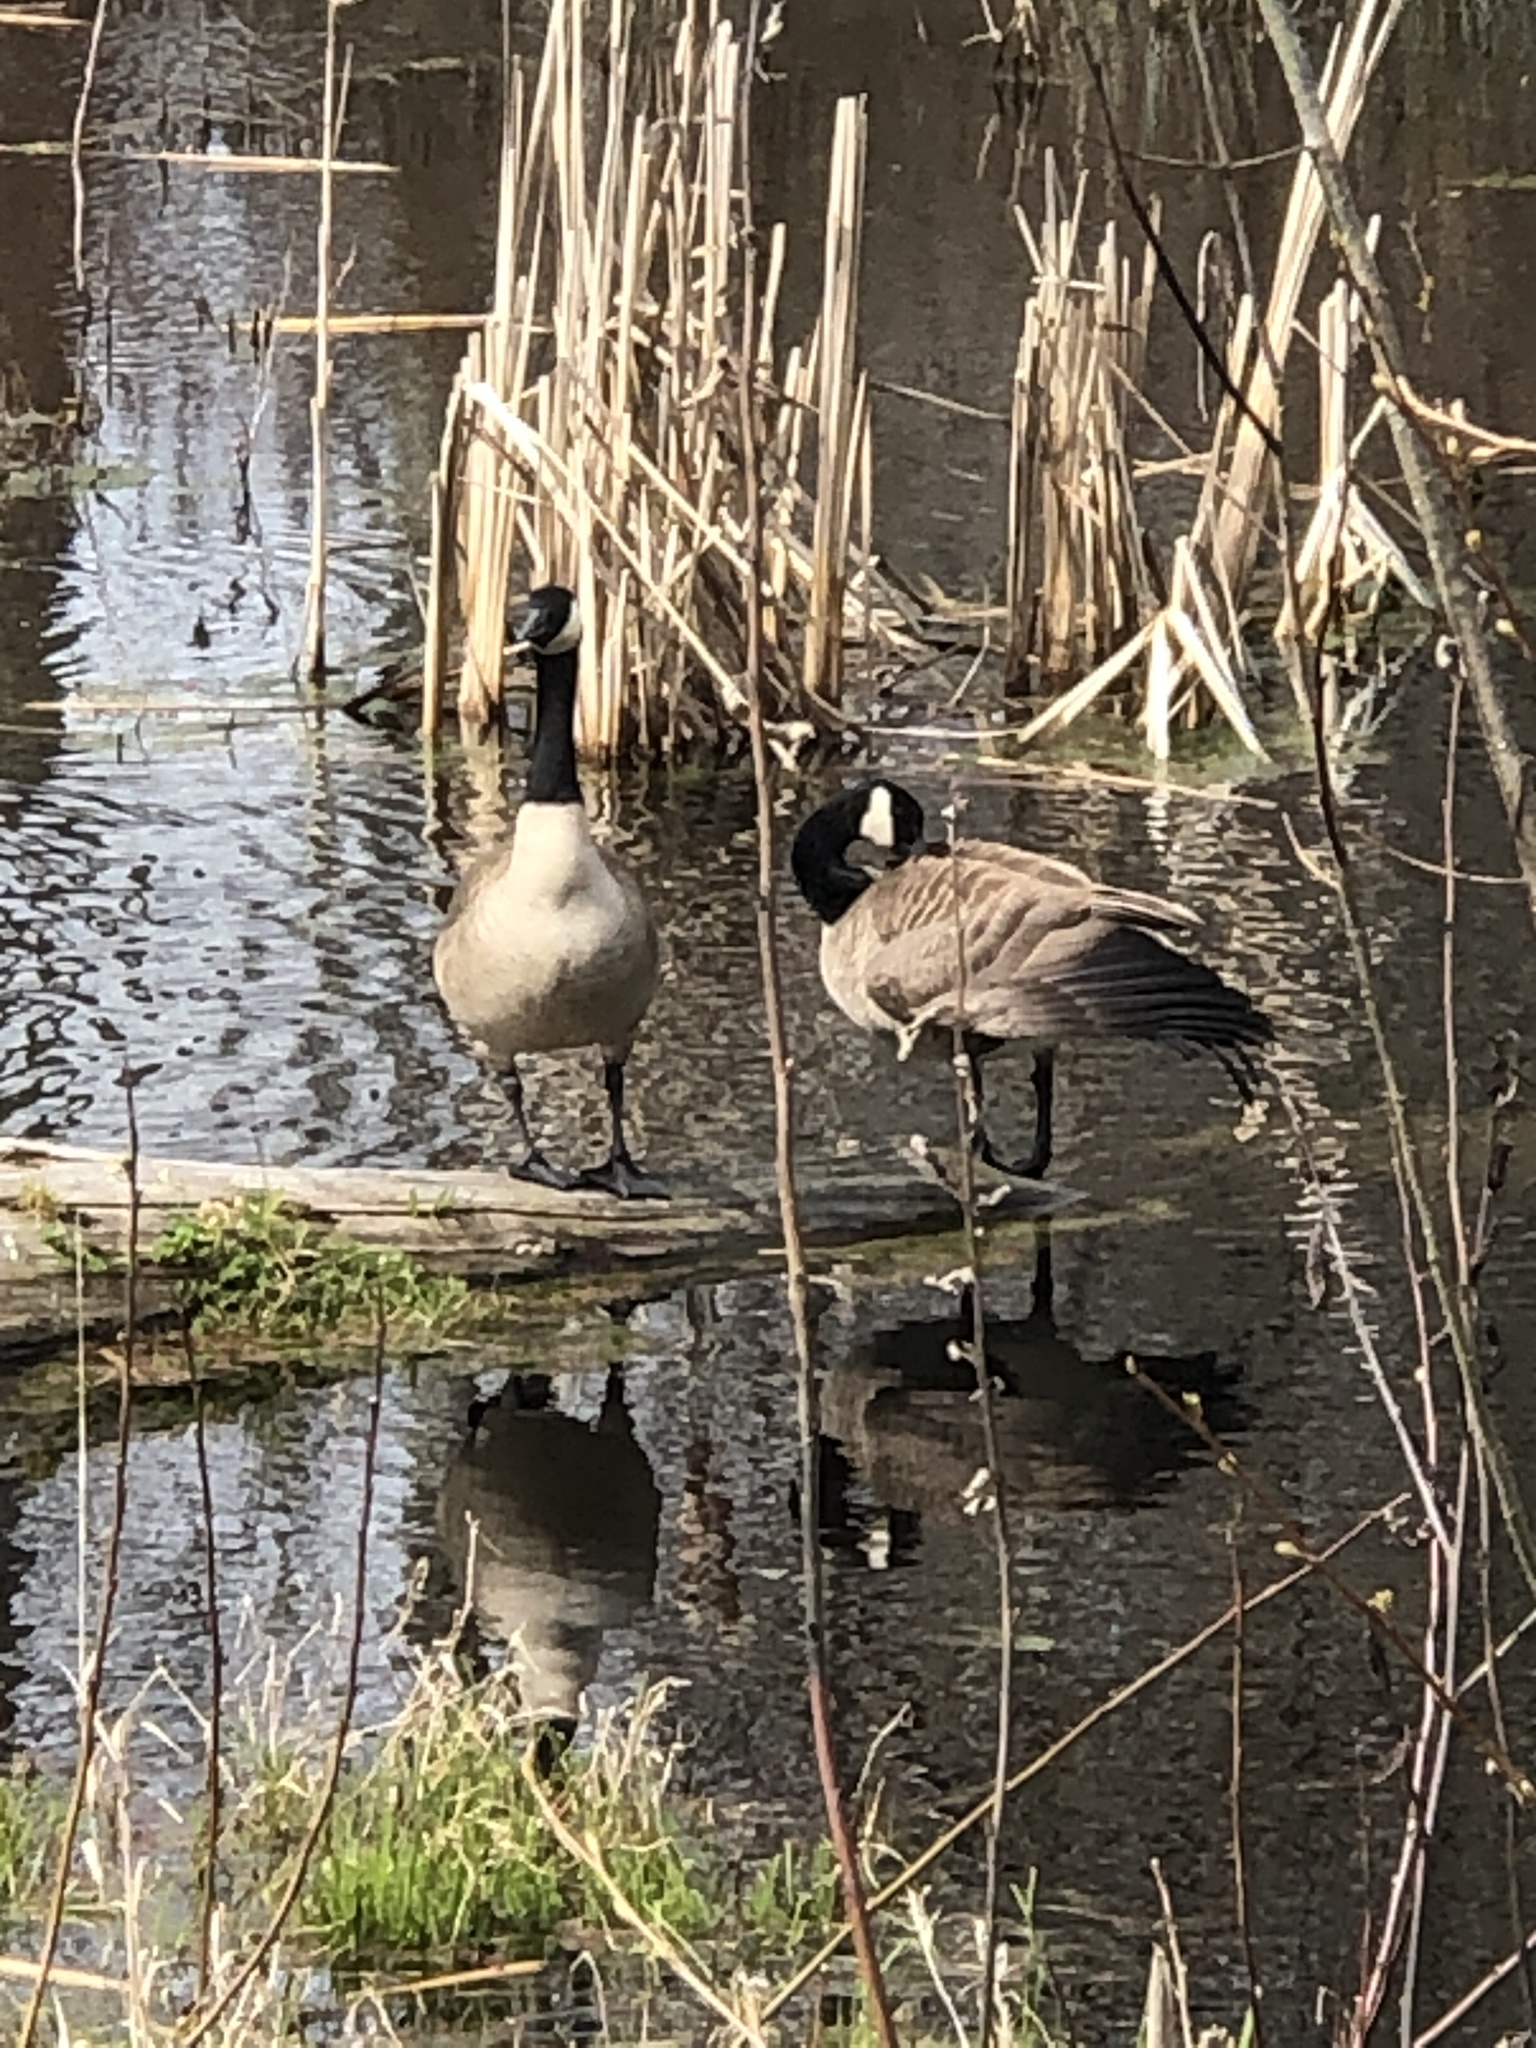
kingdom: Animalia
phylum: Chordata
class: Aves
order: Anseriformes
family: Anatidae
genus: Branta
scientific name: Branta canadensis
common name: Canada goose
